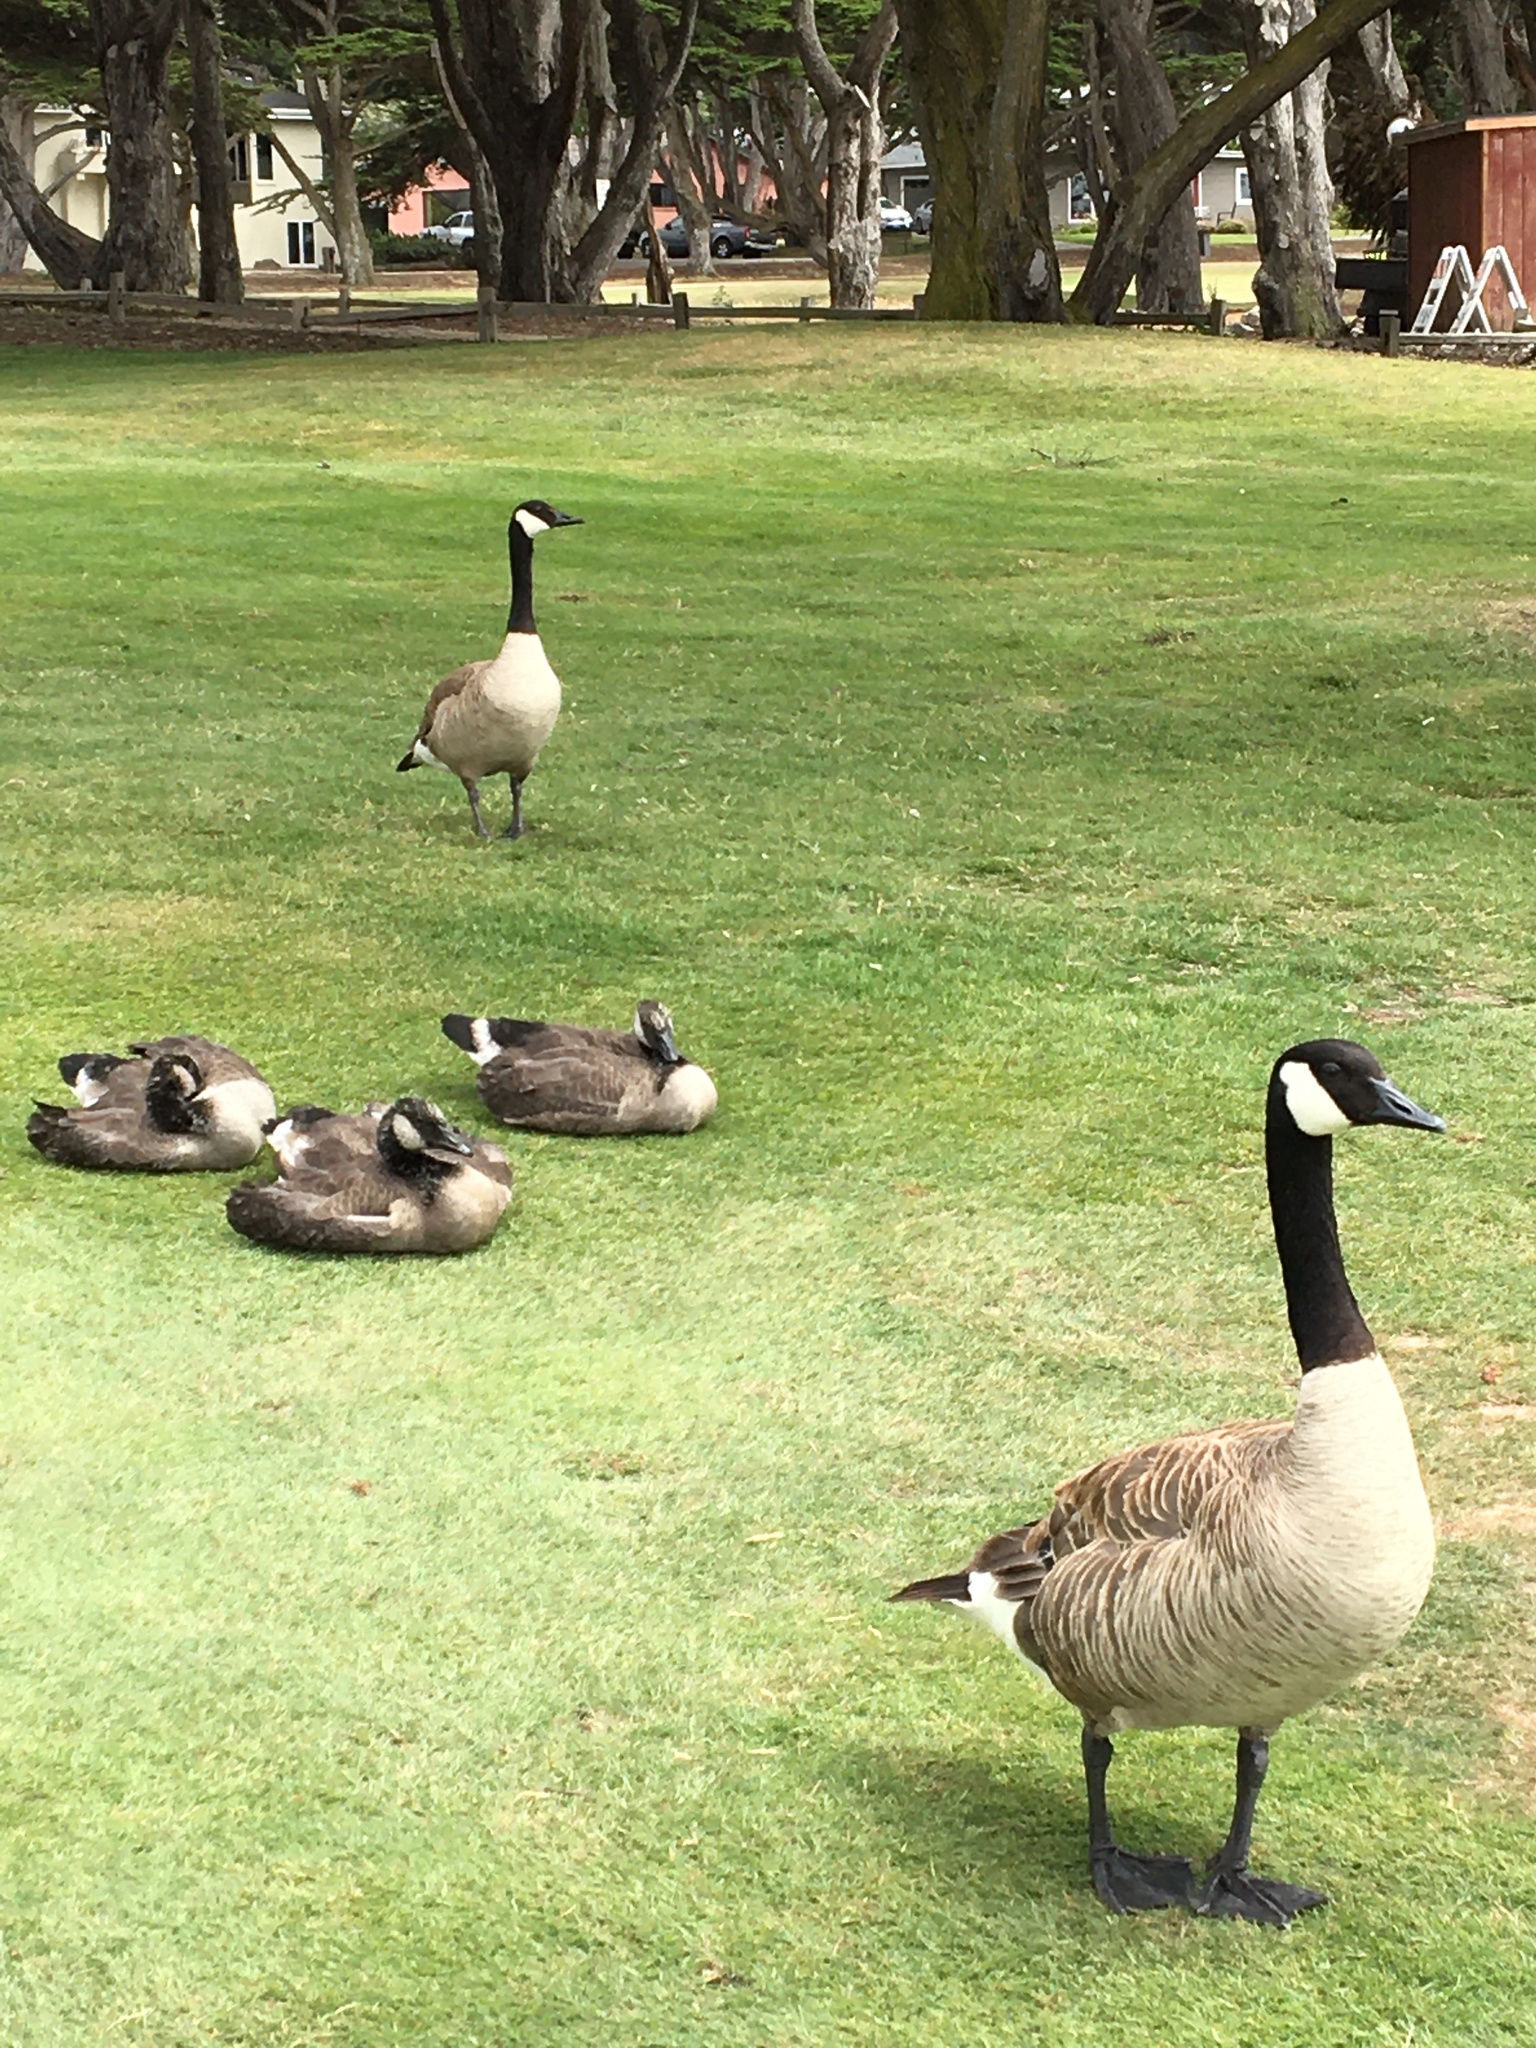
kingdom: Animalia
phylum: Chordata
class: Aves
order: Anseriformes
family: Anatidae
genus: Branta
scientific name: Branta canadensis
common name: Canada goose
